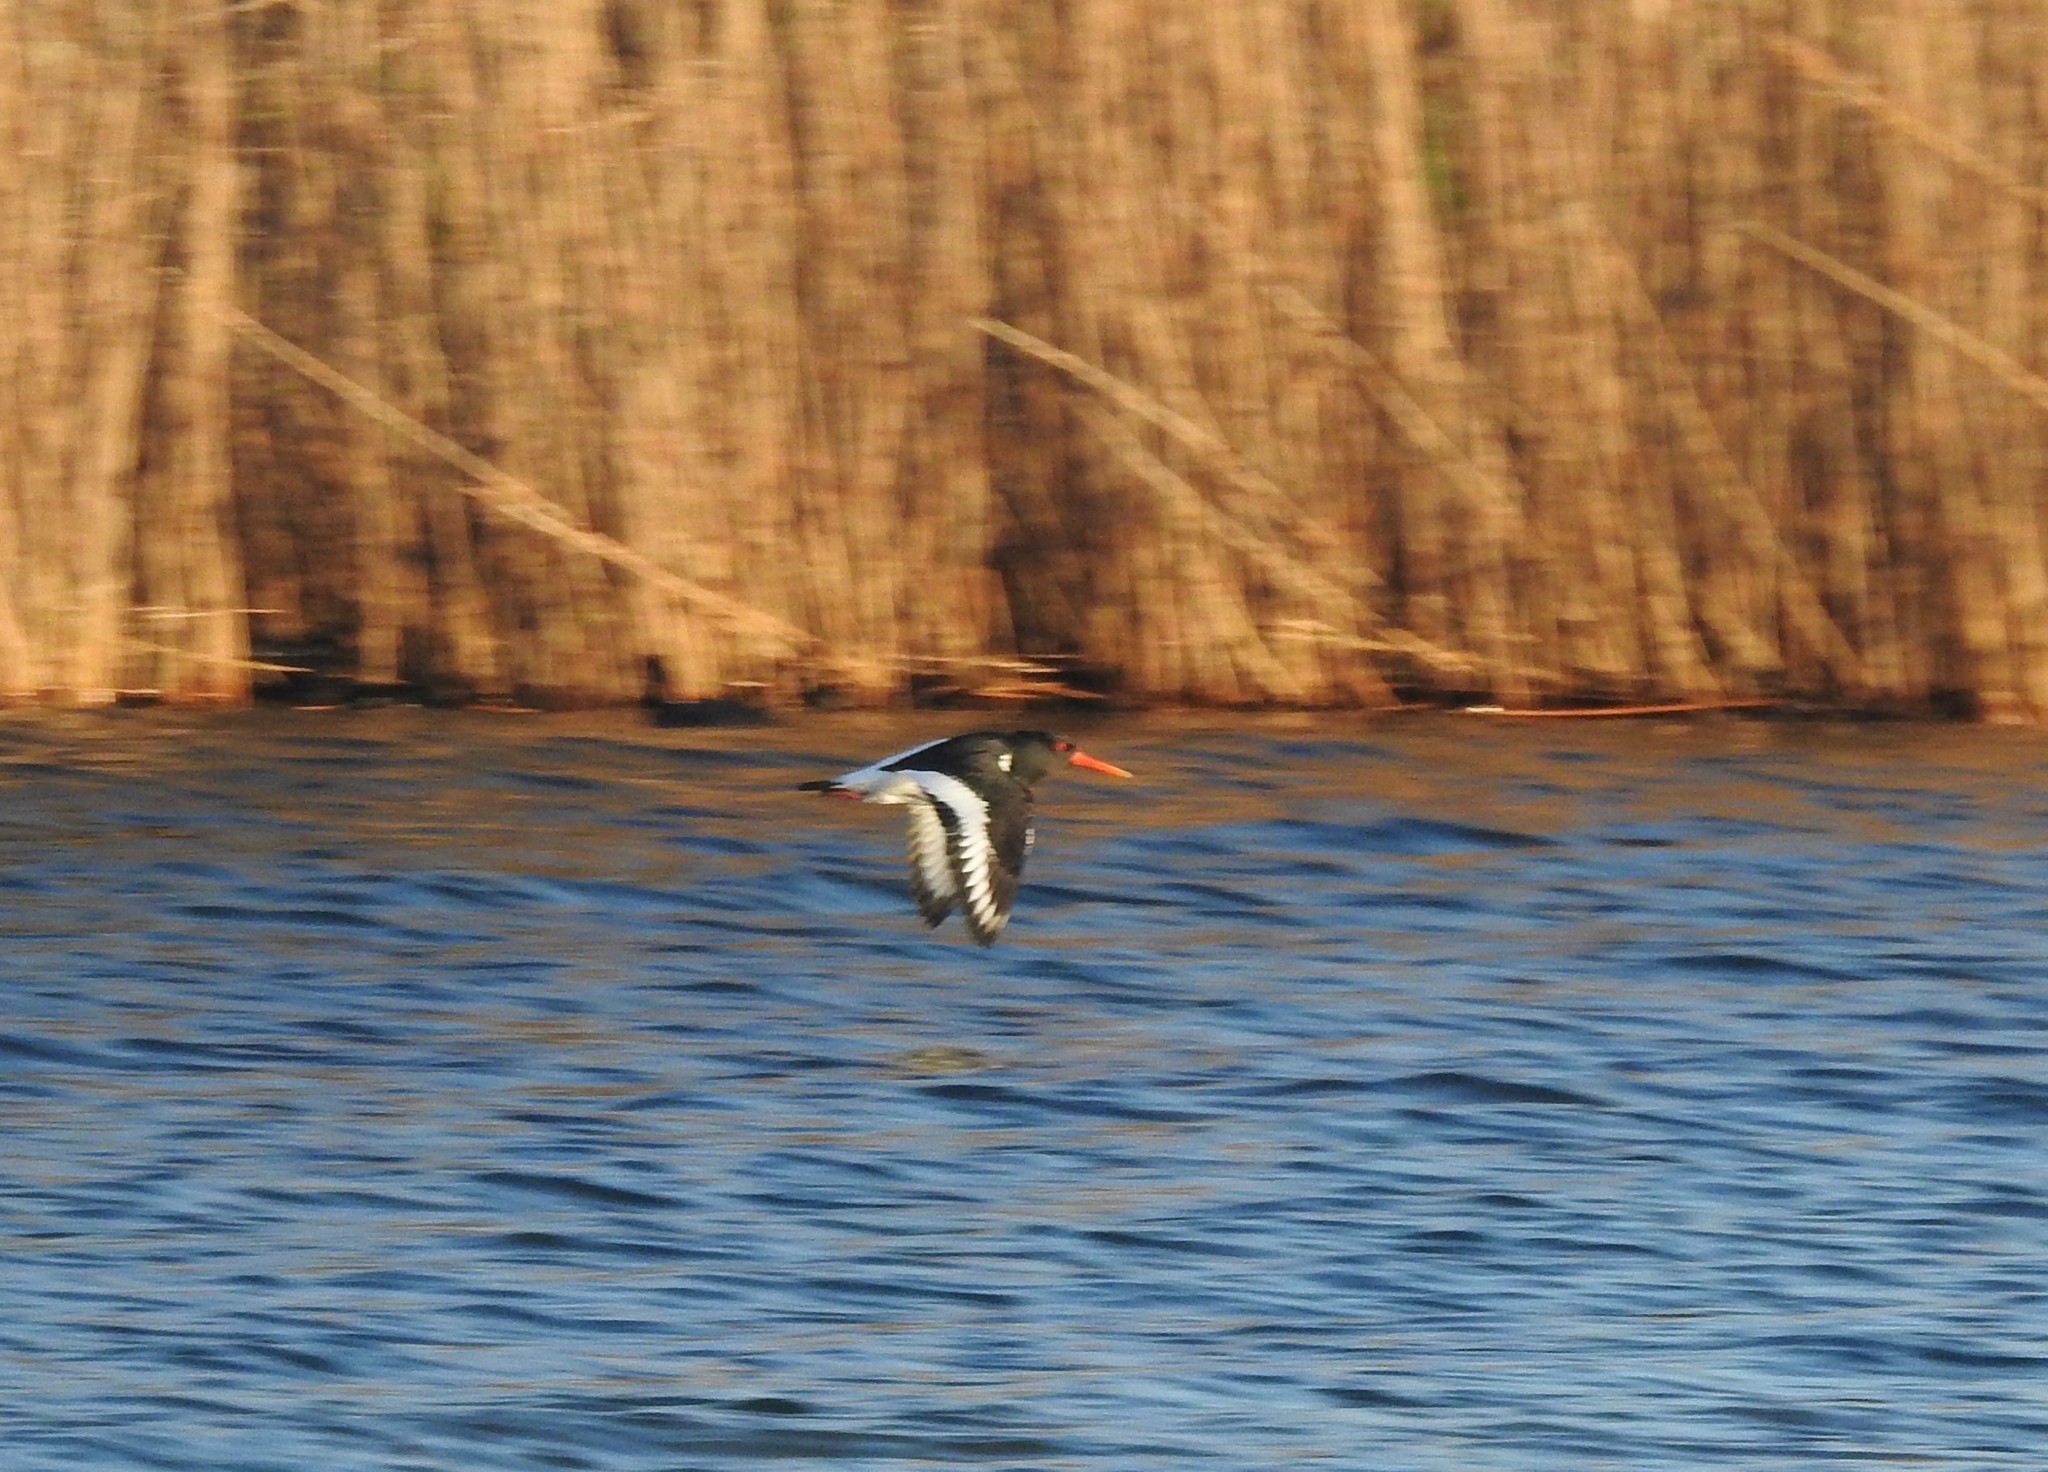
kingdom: Animalia
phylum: Chordata
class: Aves
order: Charadriiformes
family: Haematopodidae
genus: Haematopus
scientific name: Haematopus ostralegus
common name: Eurasian oystercatcher
